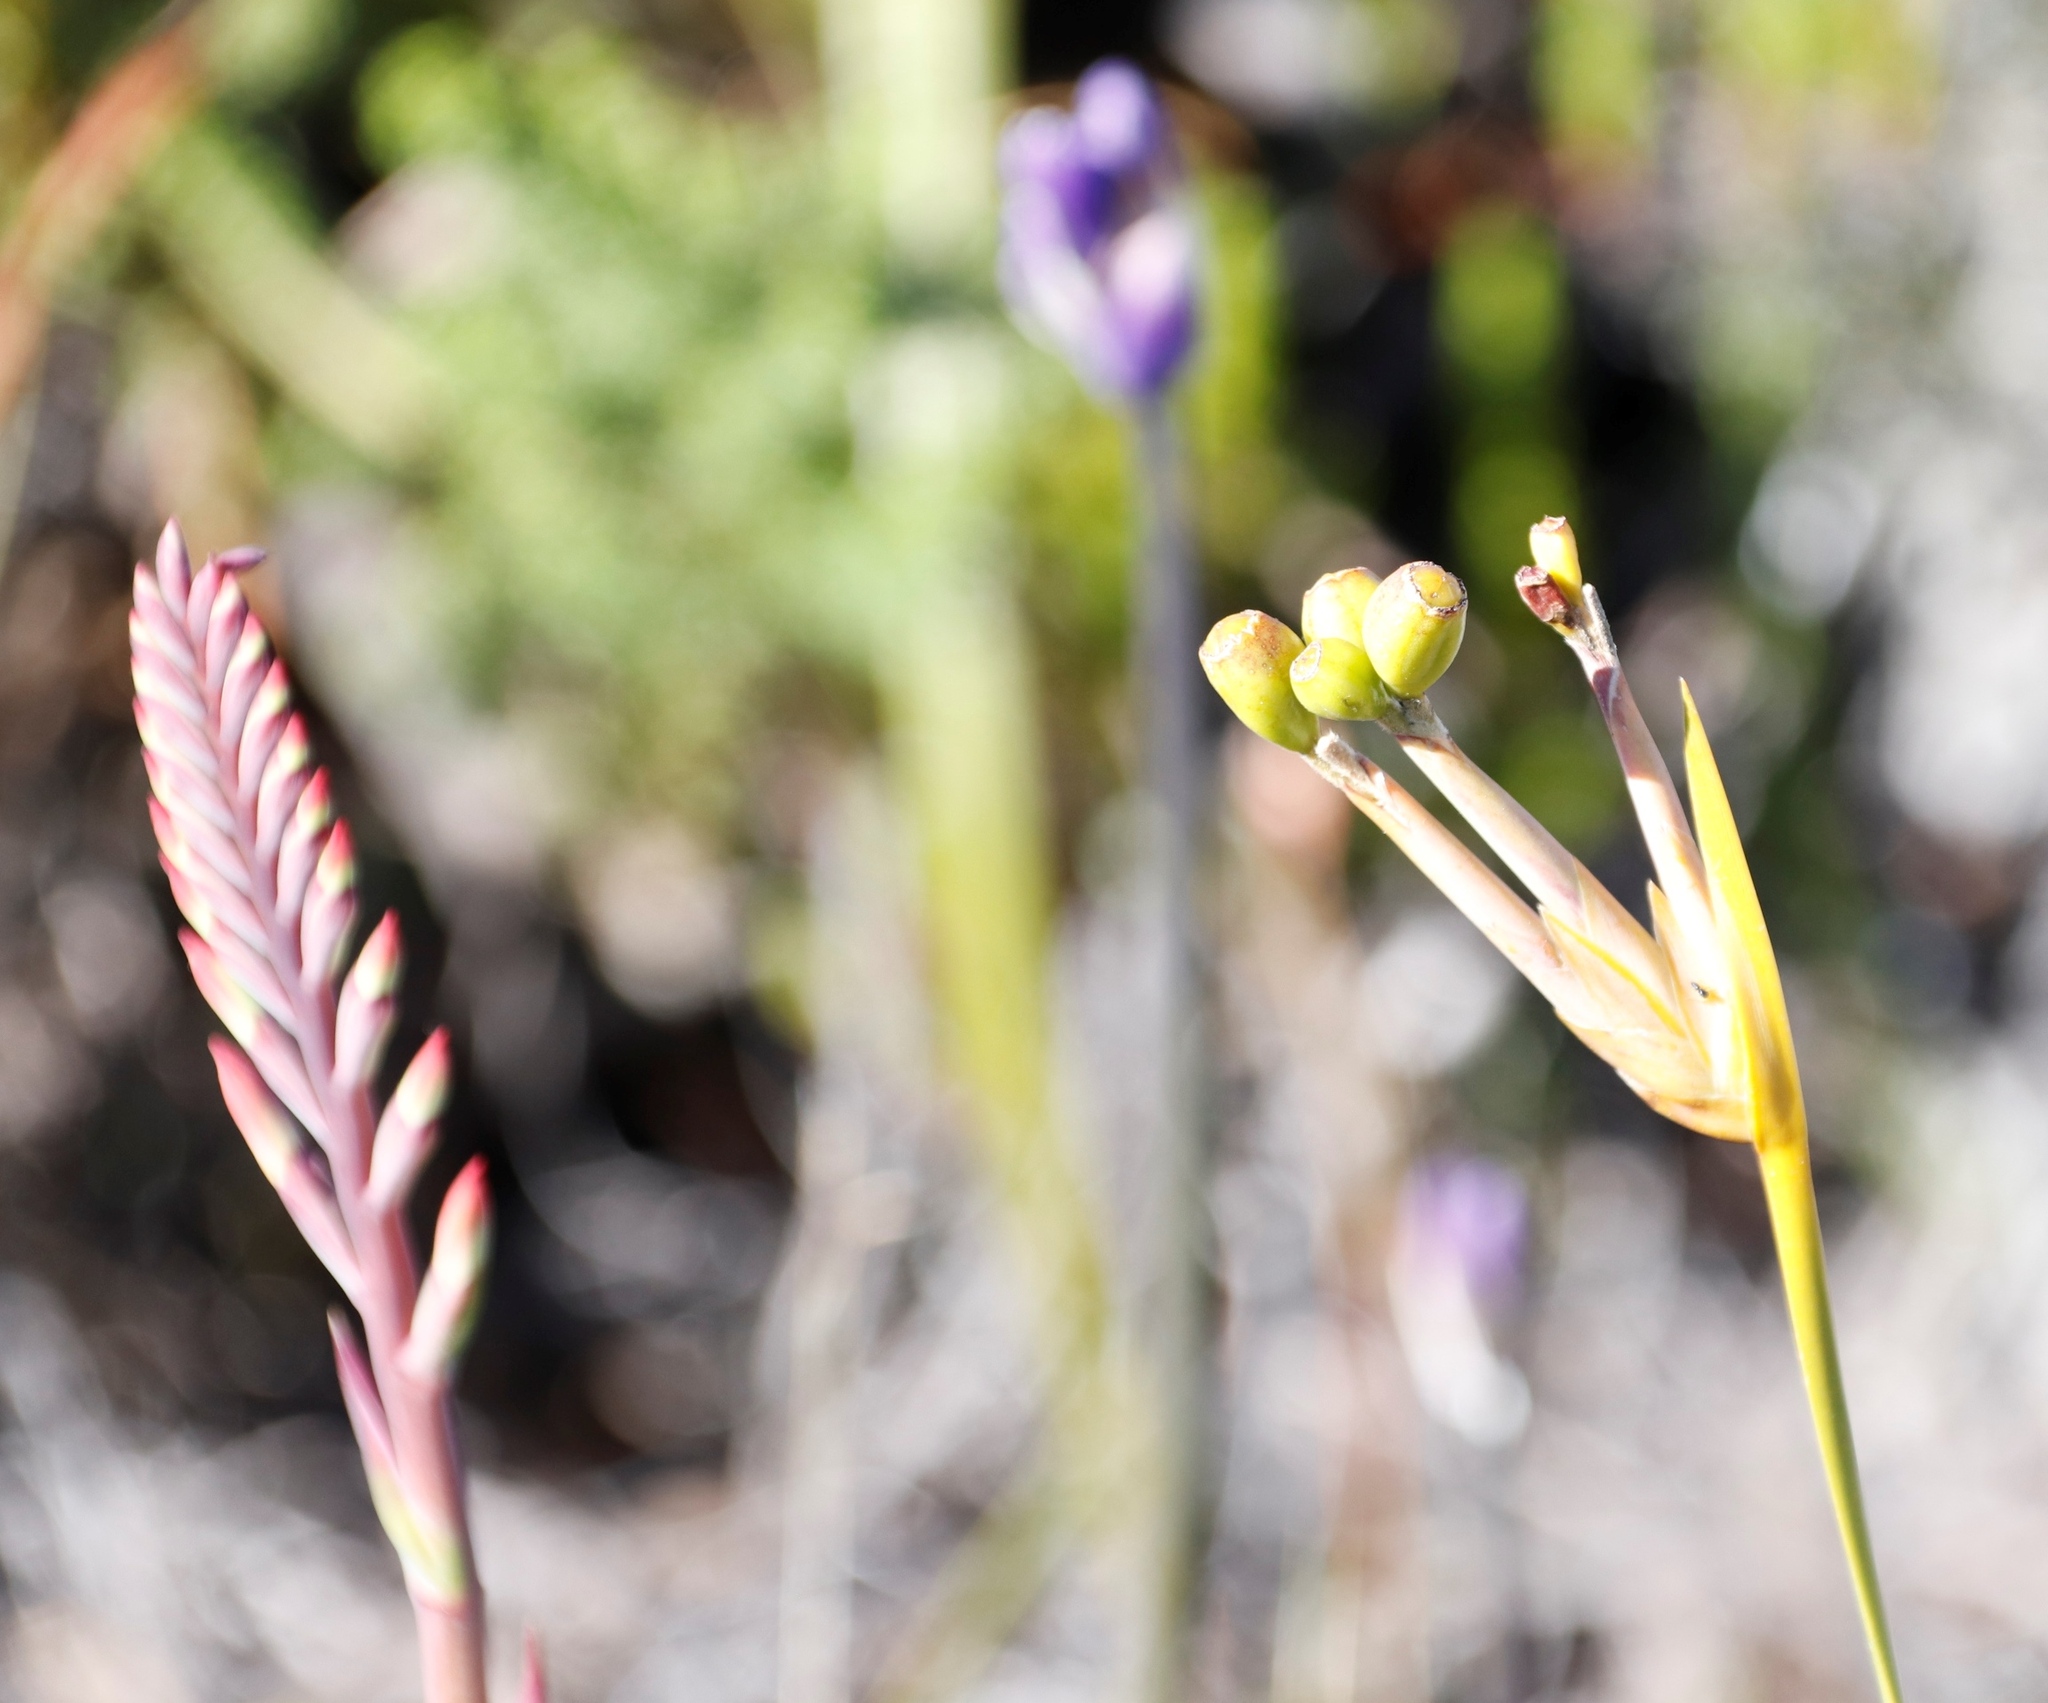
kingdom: Plantae
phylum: Tracheophyta
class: Liliopsida
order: Asparagales
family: Iridaceae
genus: Watsonia
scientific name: Watsonia tabularis
